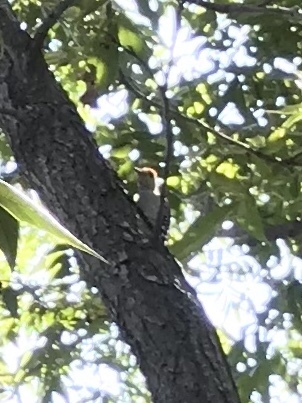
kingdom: Animalia
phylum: Chordata
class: Aves
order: Piciformes
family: Picidae
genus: Melanerpes
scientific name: Melanerpes carolinus
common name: Red-bellied woodpecker
